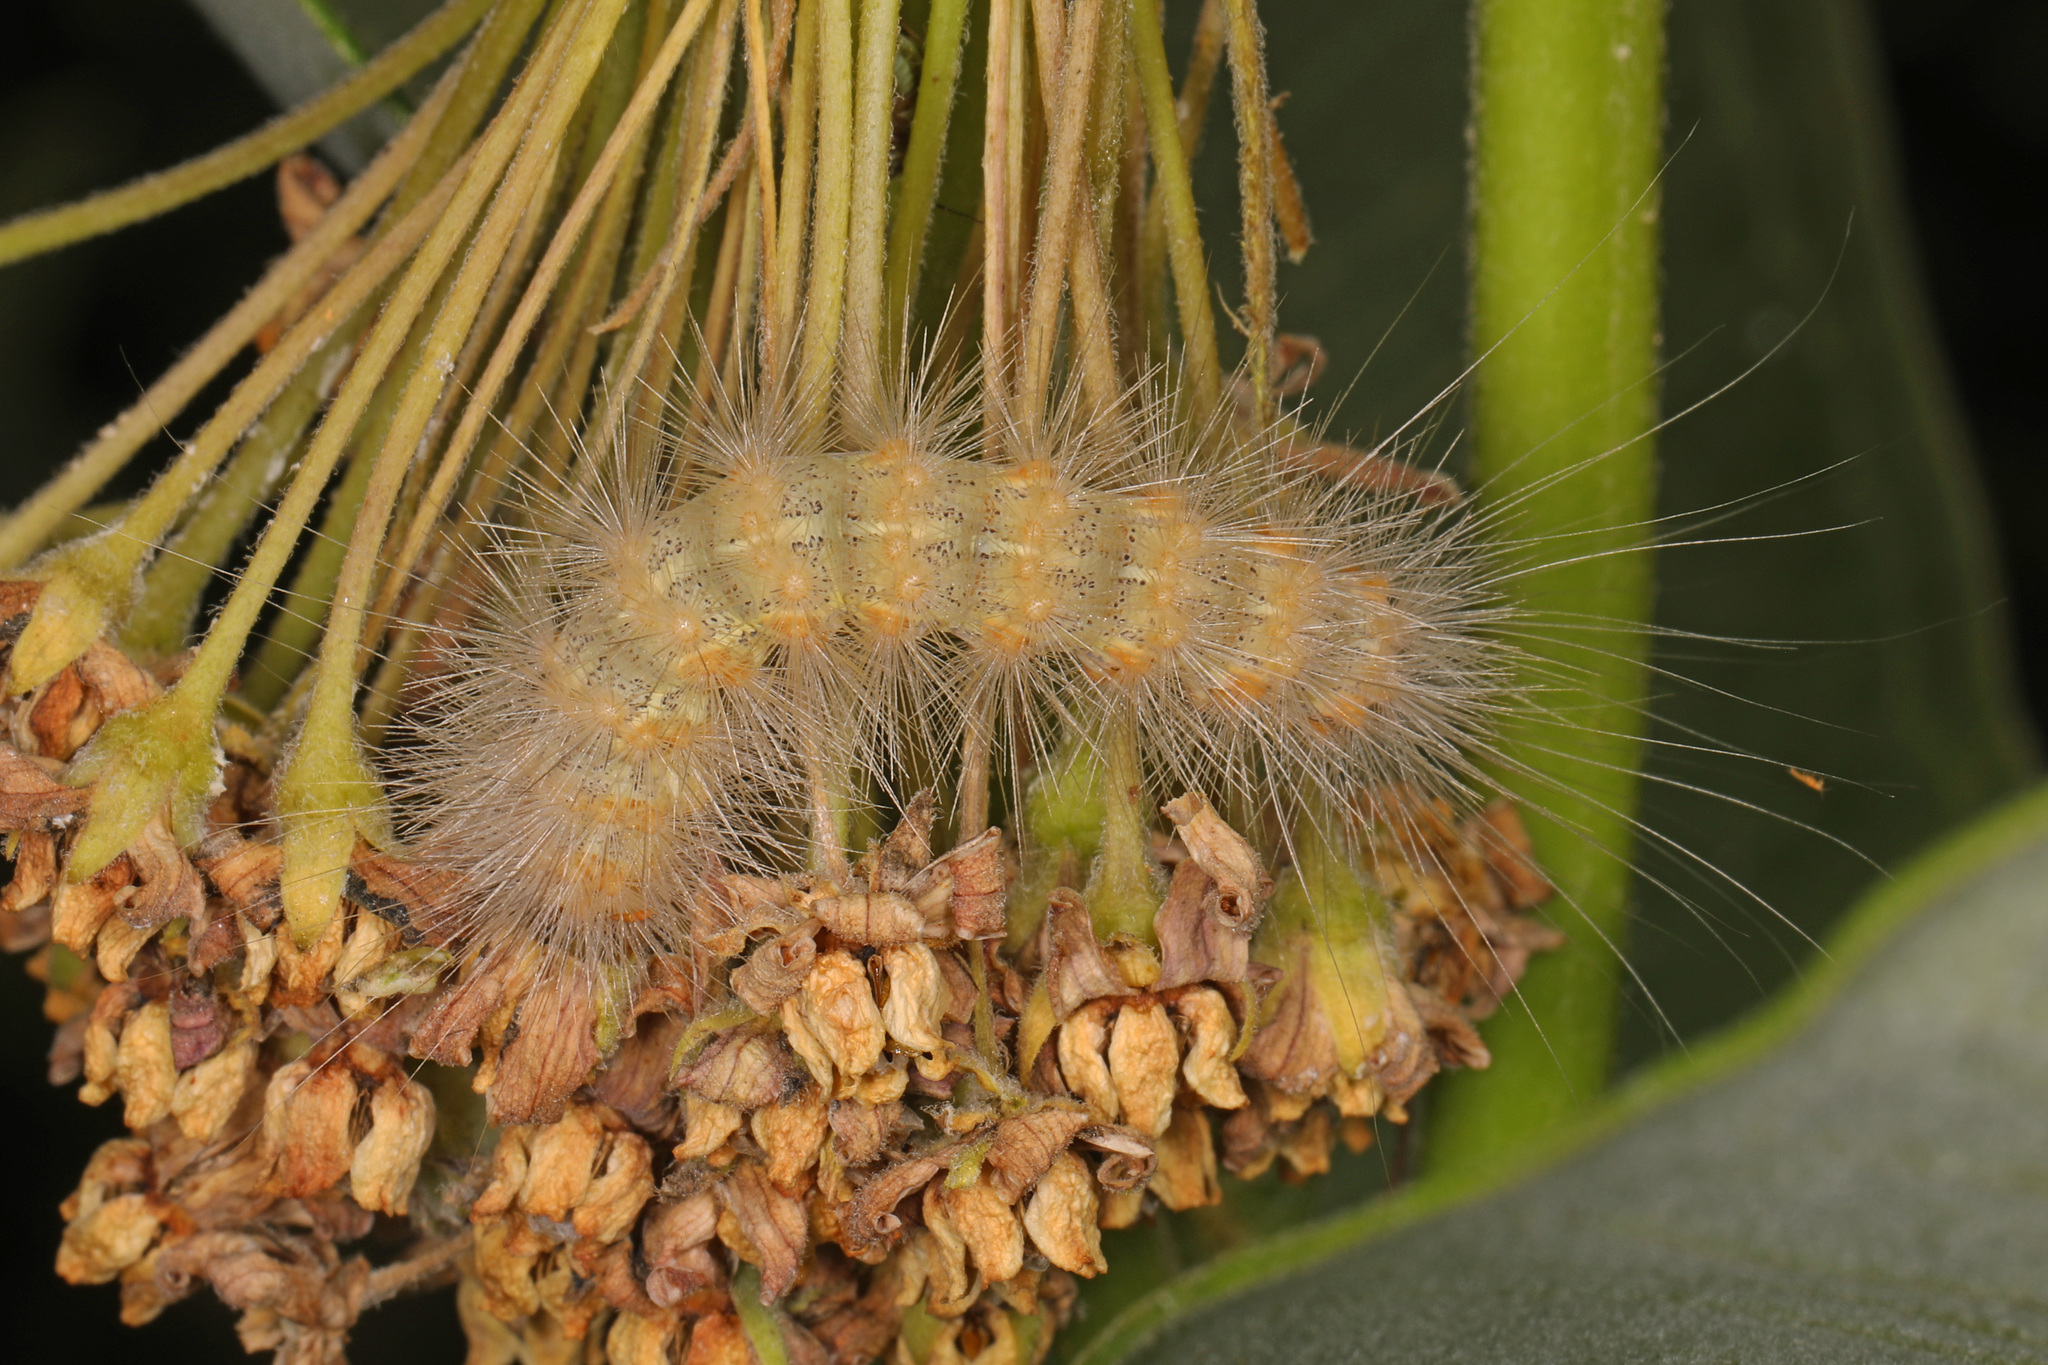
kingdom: Animalia
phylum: Arthropoda
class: Insecta
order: Lepidoptera
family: Erebidae
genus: Estigmene
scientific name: Estigmene acrea
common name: Salt marsh moth
